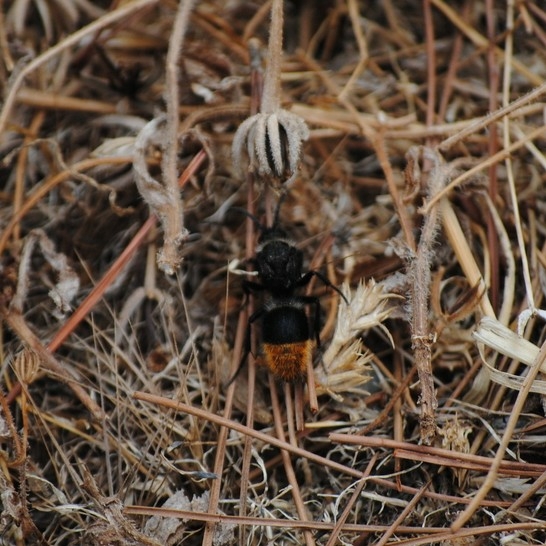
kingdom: Animalia
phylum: Arthropoda
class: Insecta
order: Hymenoptera
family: Mutillidae
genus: Dasylabris
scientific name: Dasylabris egregia
